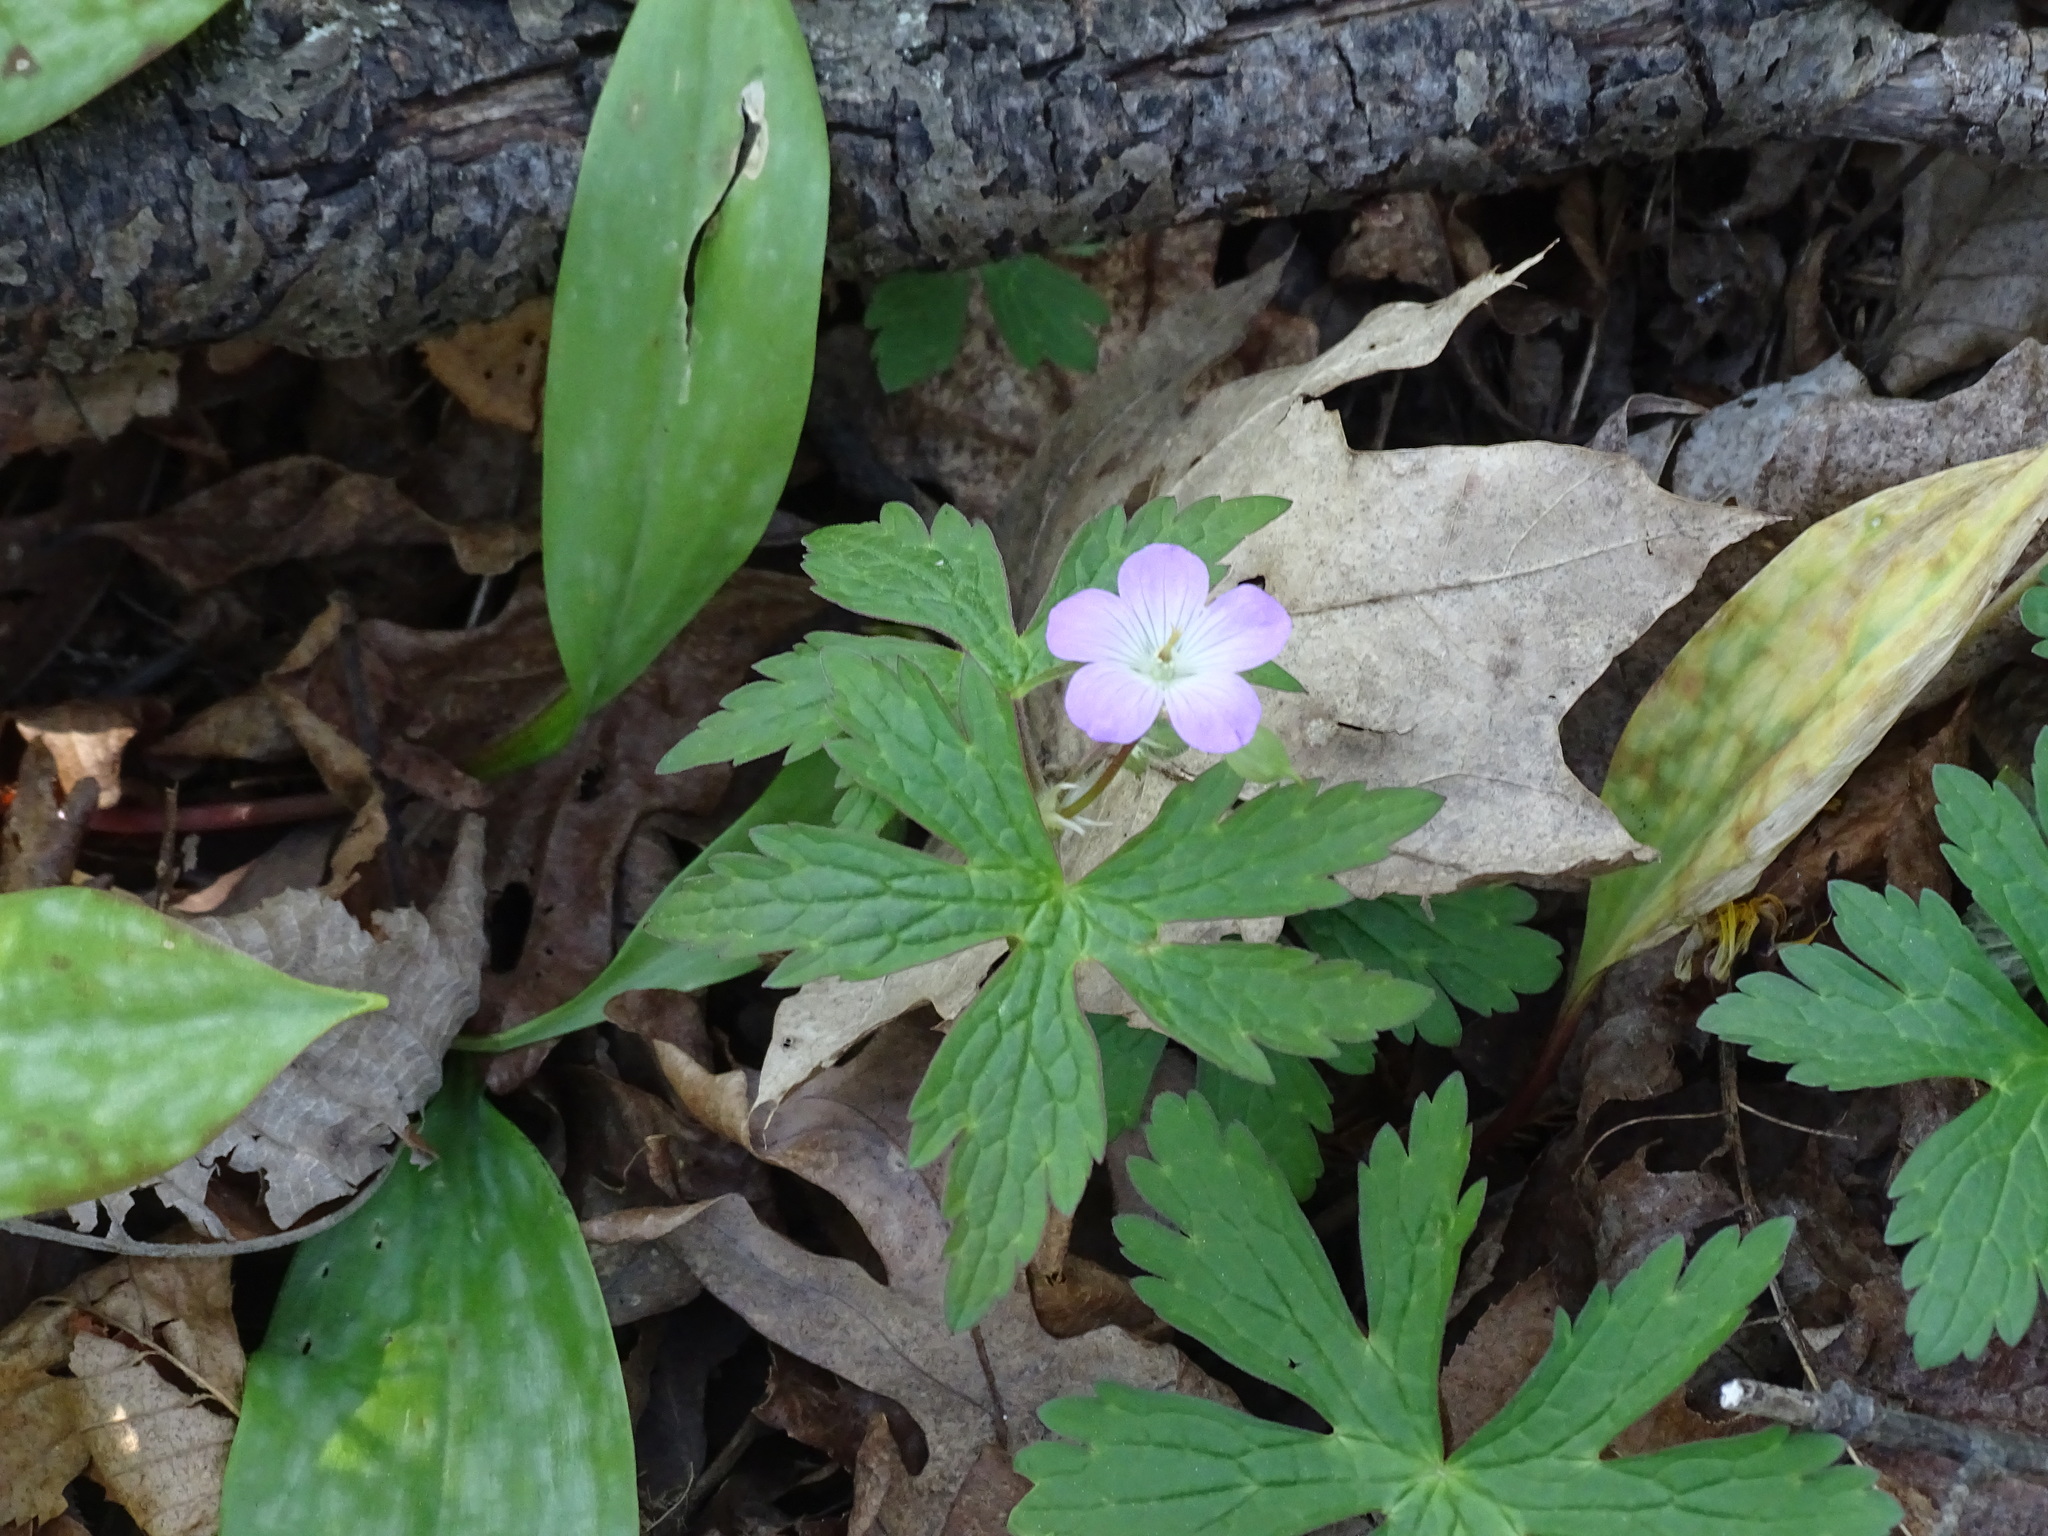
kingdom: Plantae
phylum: Tracheophyta
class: Magnoliopsida
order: Geraniales
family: Geraniaceae
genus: Geranium
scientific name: Geranium maculatum
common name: Spotted geranium
